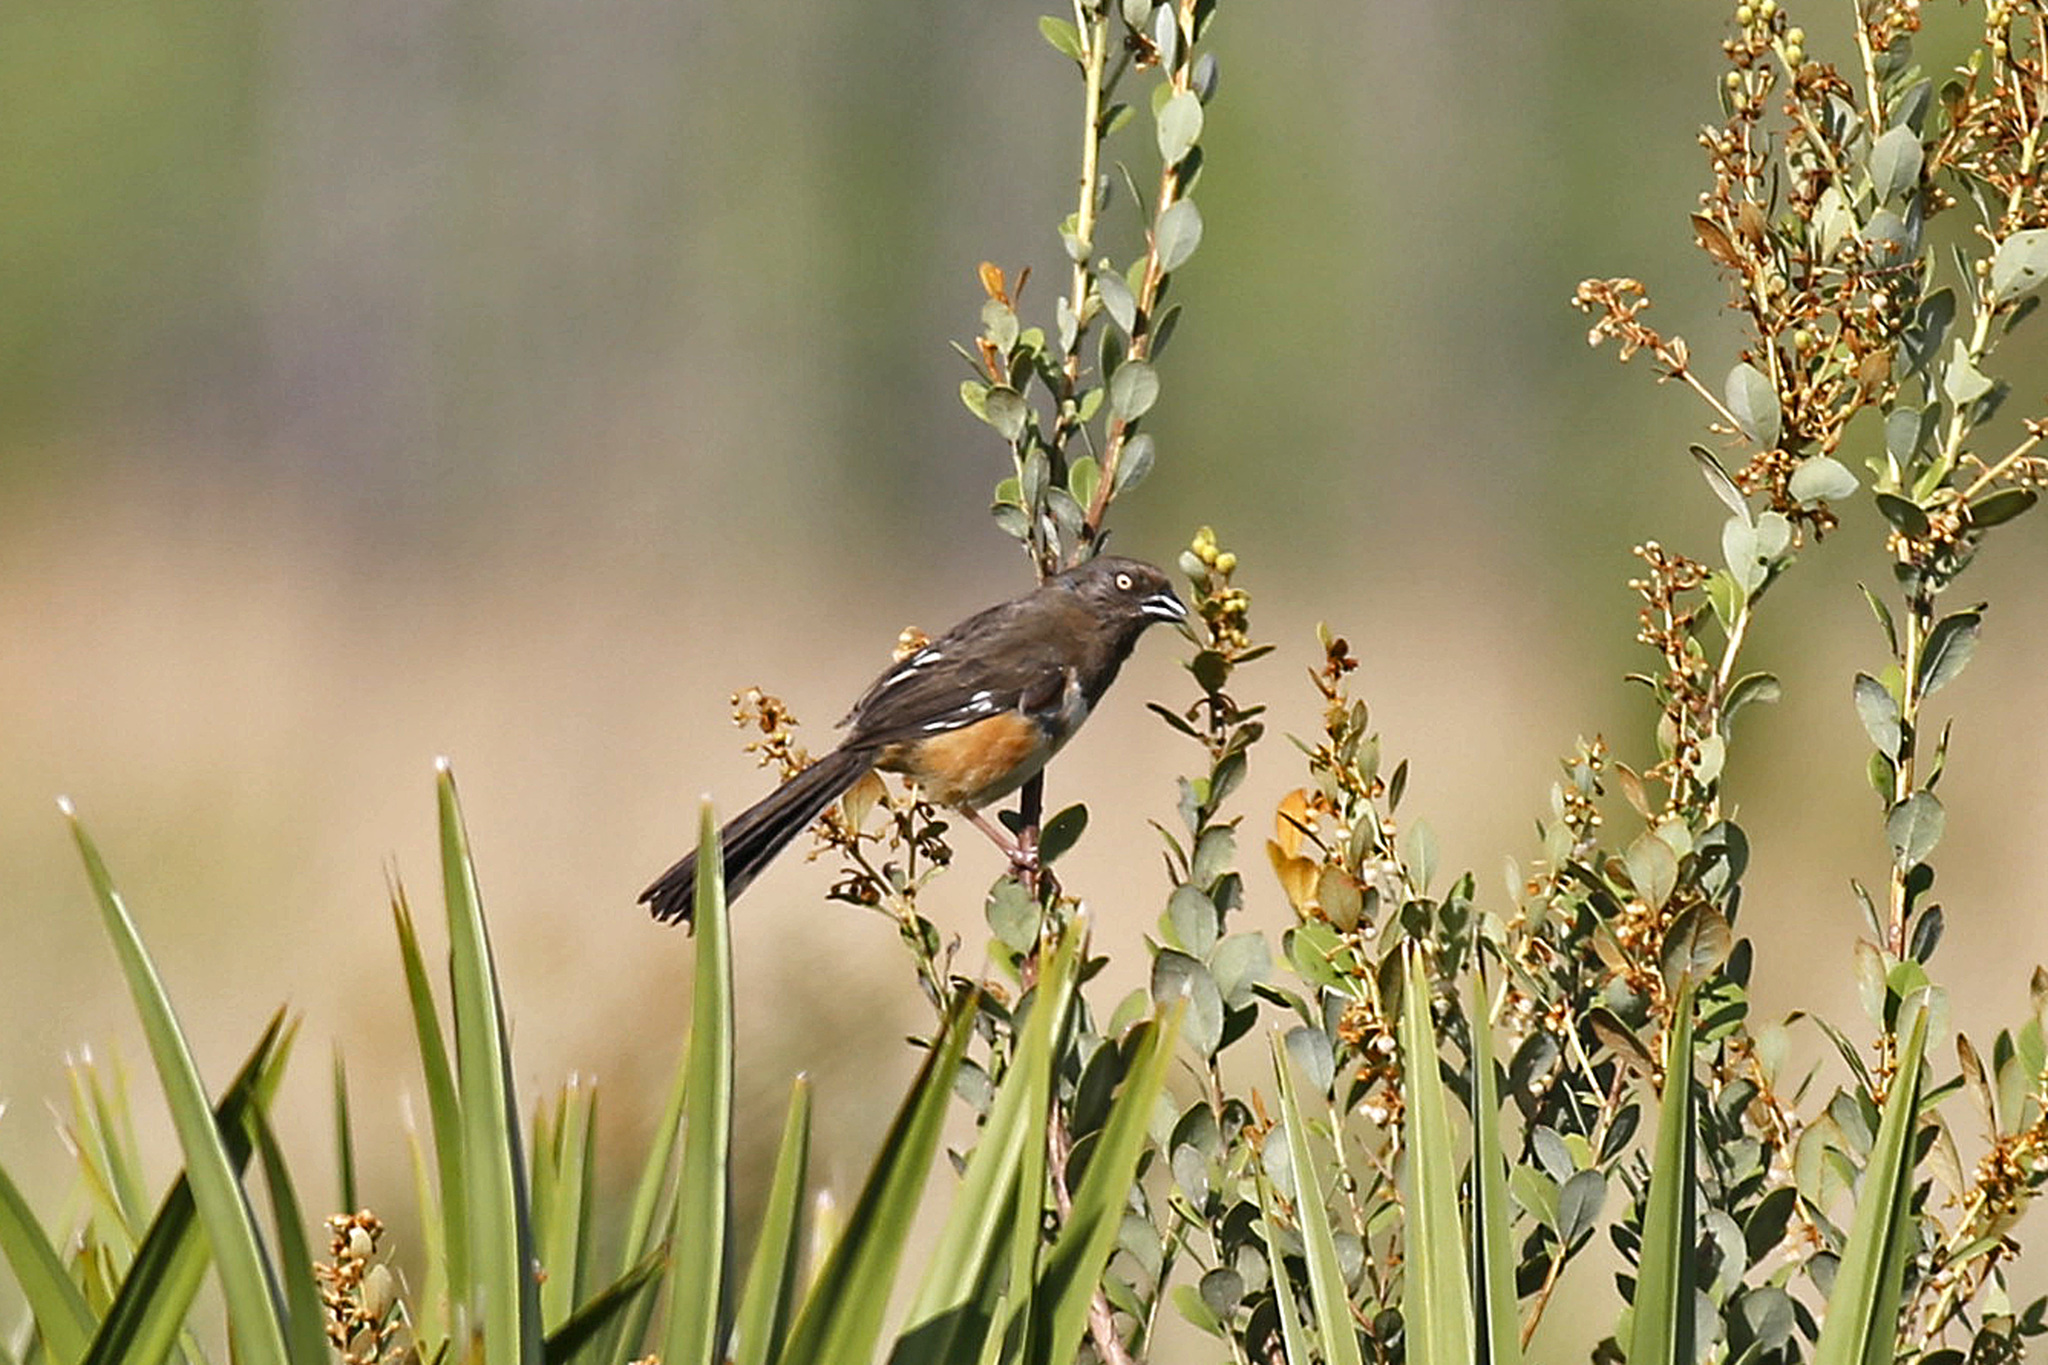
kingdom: Animalia
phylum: Chordata
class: Aves
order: Passeriformes
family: Passerellidae
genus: Pipilo
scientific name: Pipilo erythrophthalmus
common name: Eastern towhee
